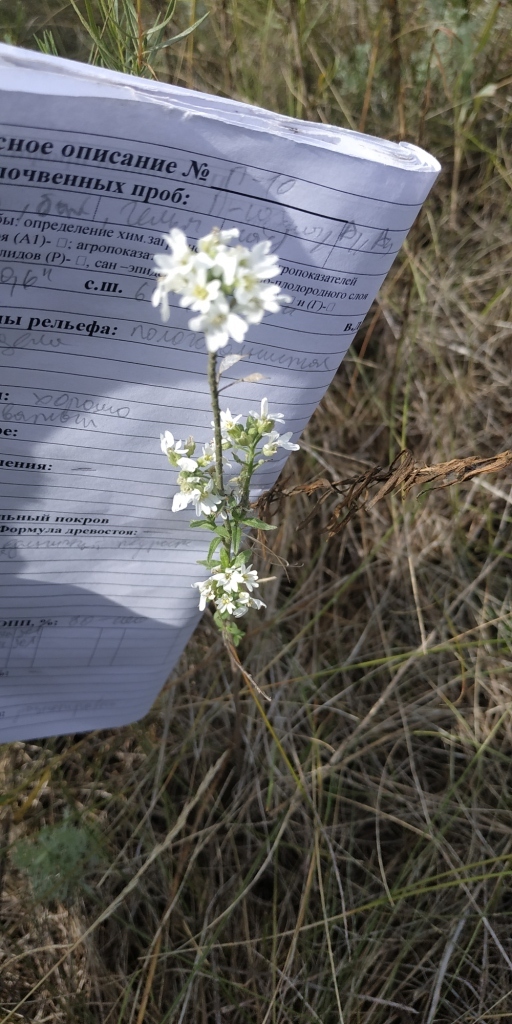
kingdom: Plantae
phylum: Tracheophyta
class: Magnoliopsida
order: Brassicales
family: Brassicaceae
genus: Berteroa
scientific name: Berteroa incana
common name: Hoary alison
